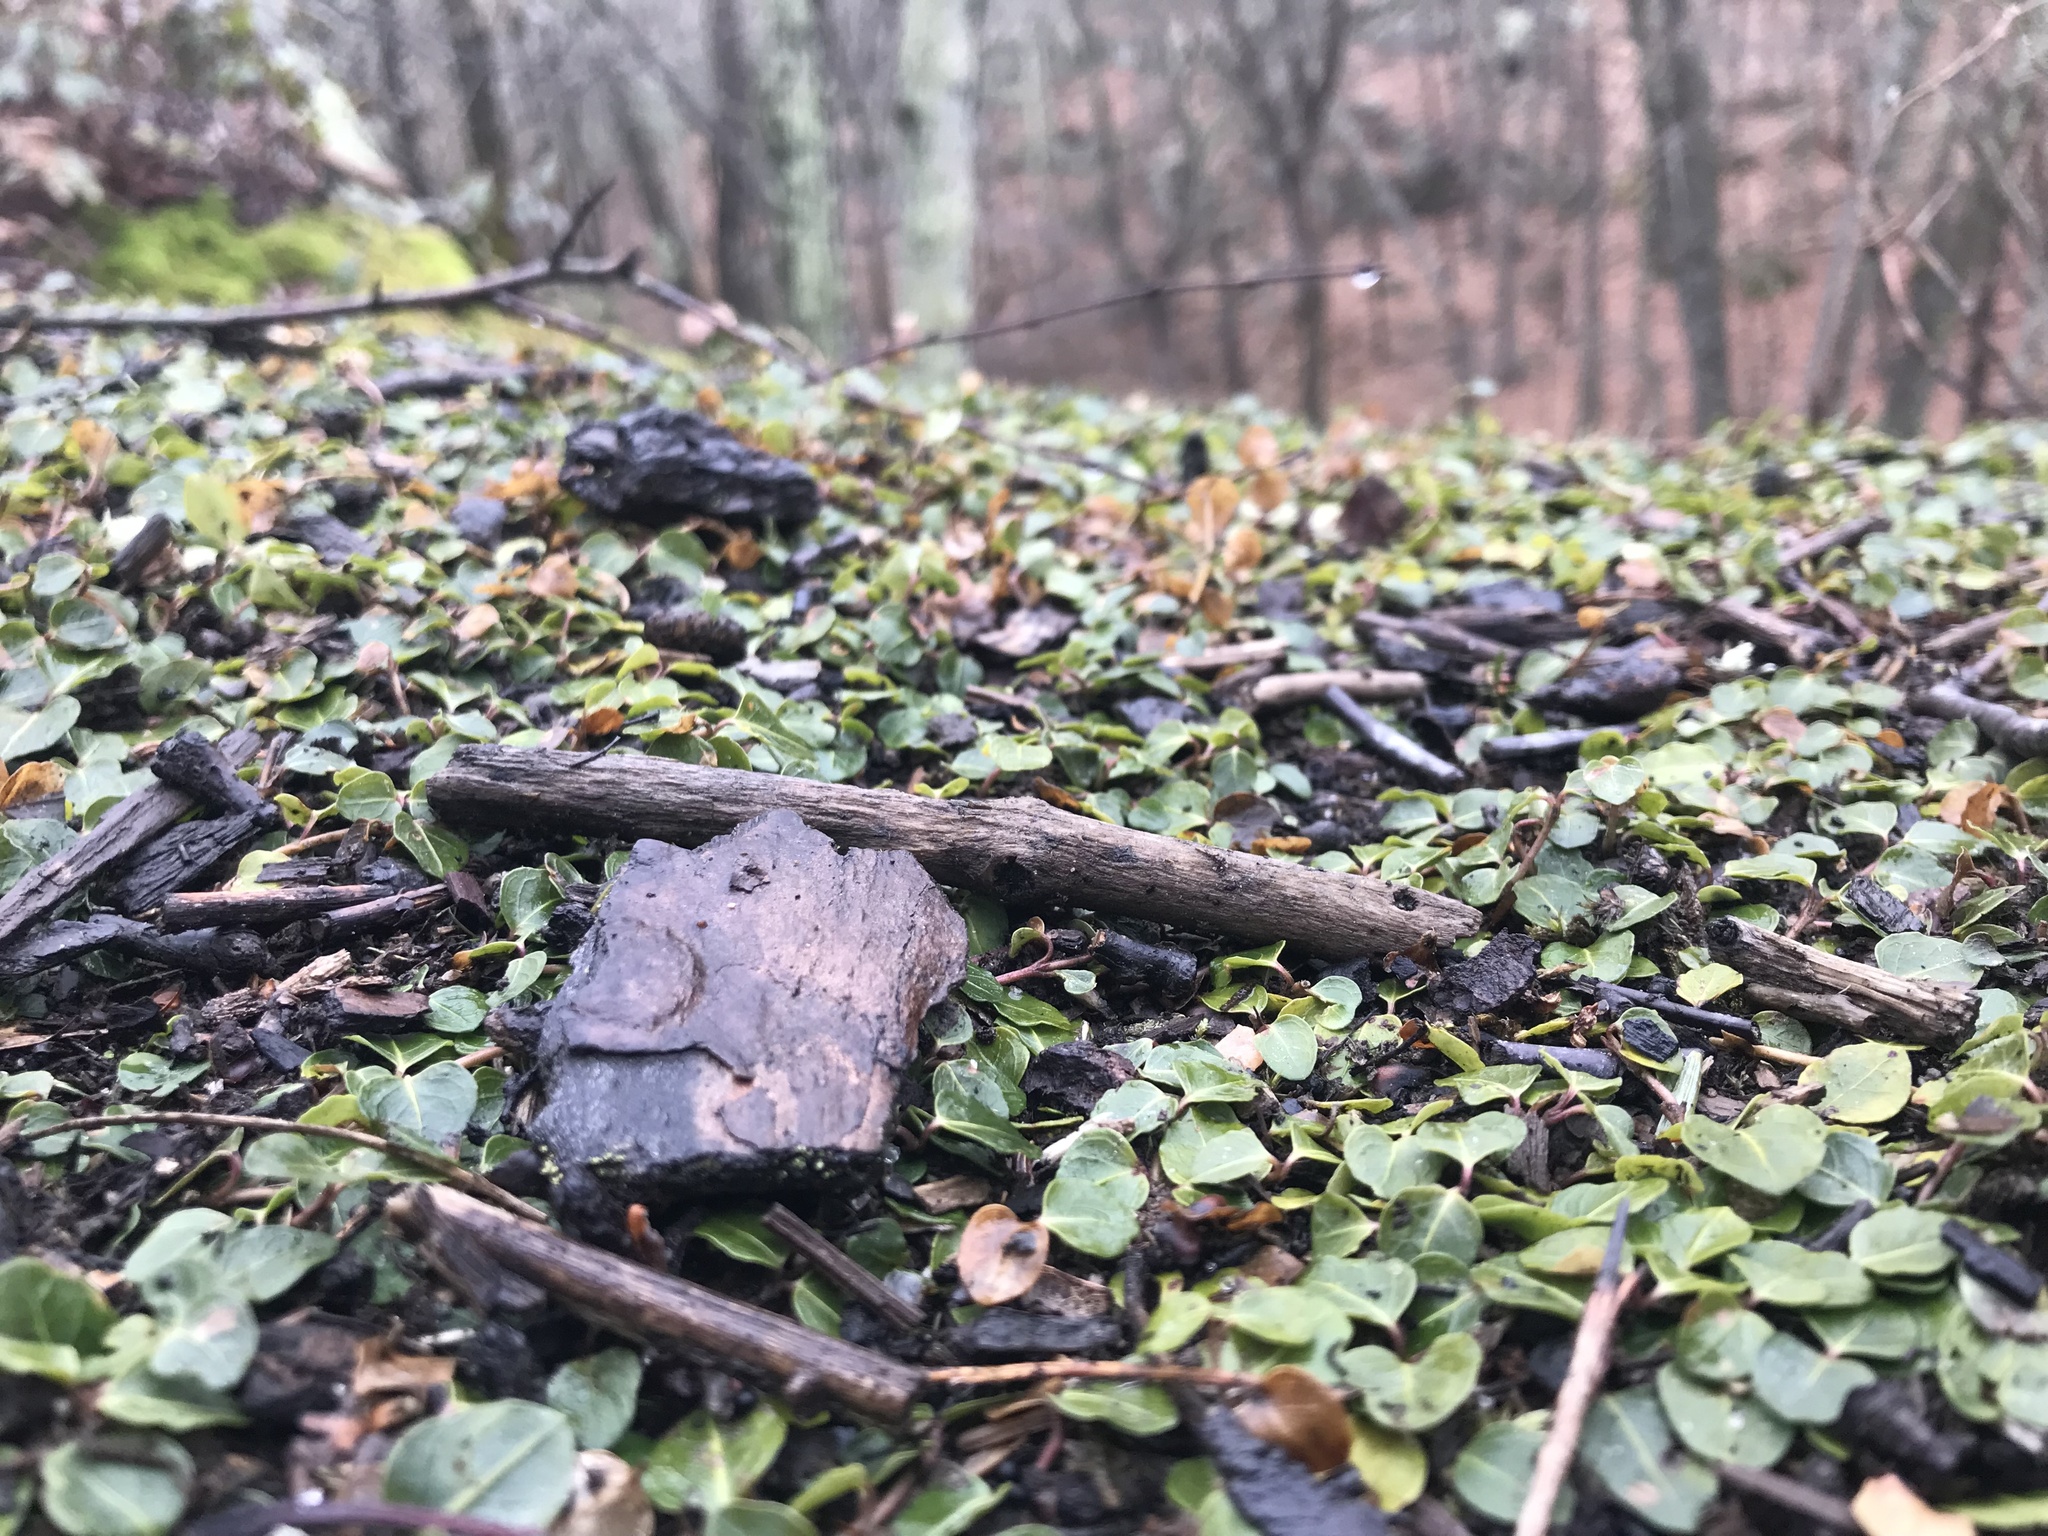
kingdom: Plantae
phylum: Tracheophyta
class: Magnoliopsida
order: Gentianales
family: Rubiaceae
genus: Mitchella
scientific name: Mitchella repens
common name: Partridge-berry
